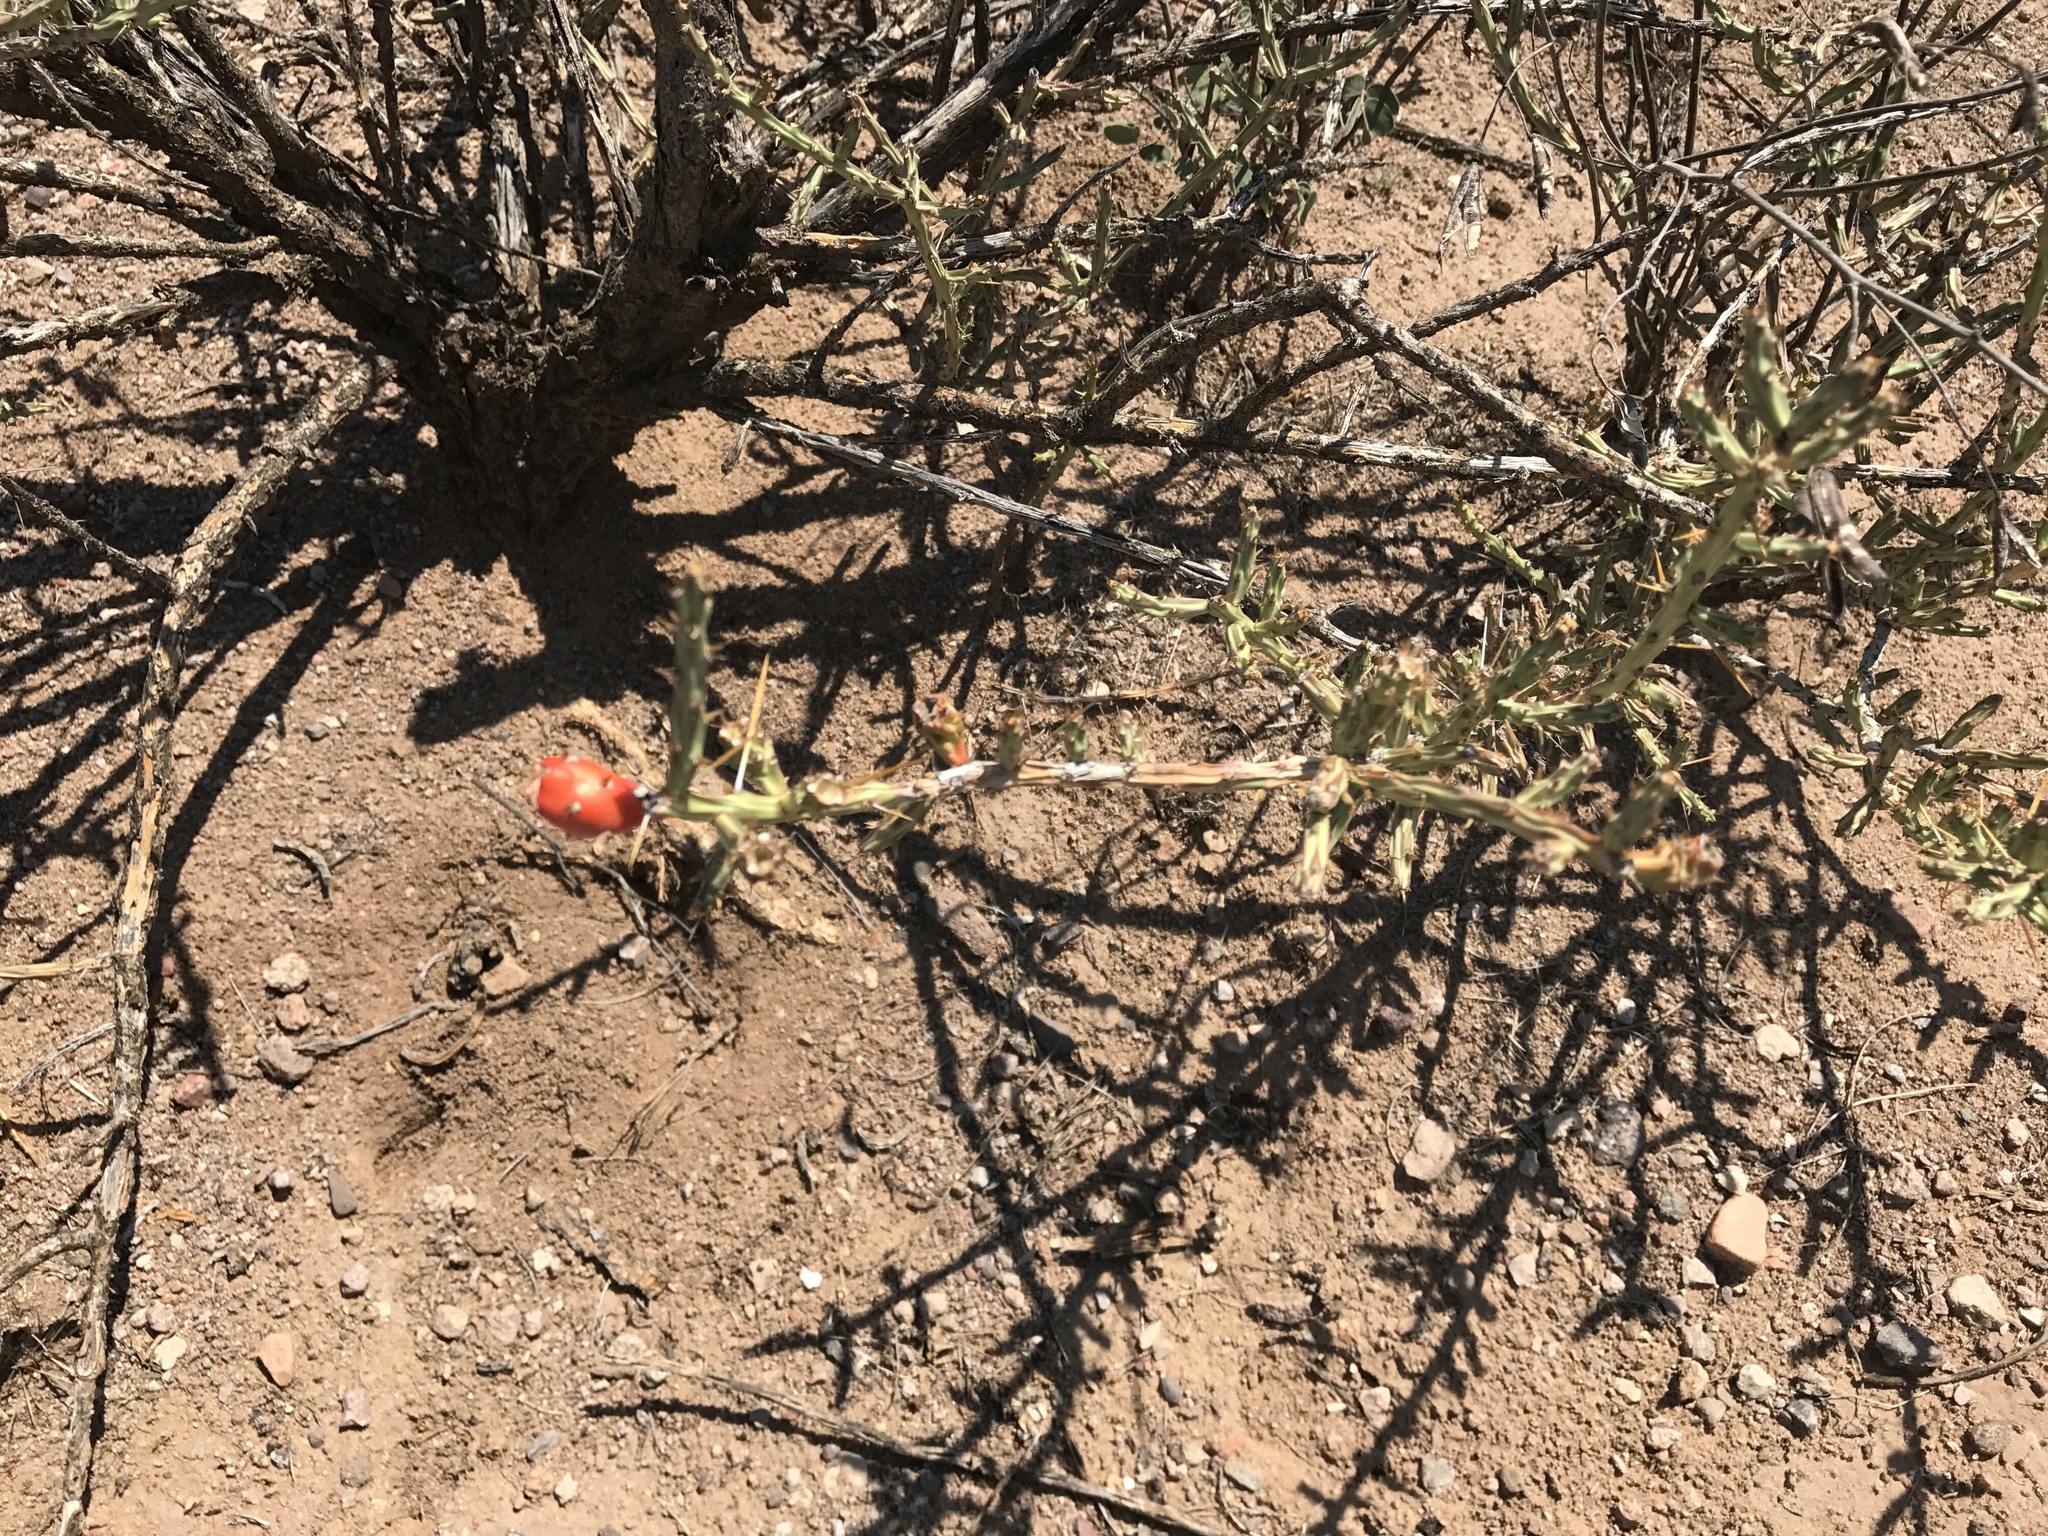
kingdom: Plantae
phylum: Tracheophyta
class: Magnoliopsida
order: Caryophyllales
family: Cactaceae
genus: Cylindropuntia
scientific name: Cylindropuntia leptocaulis
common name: Christmas cactus
